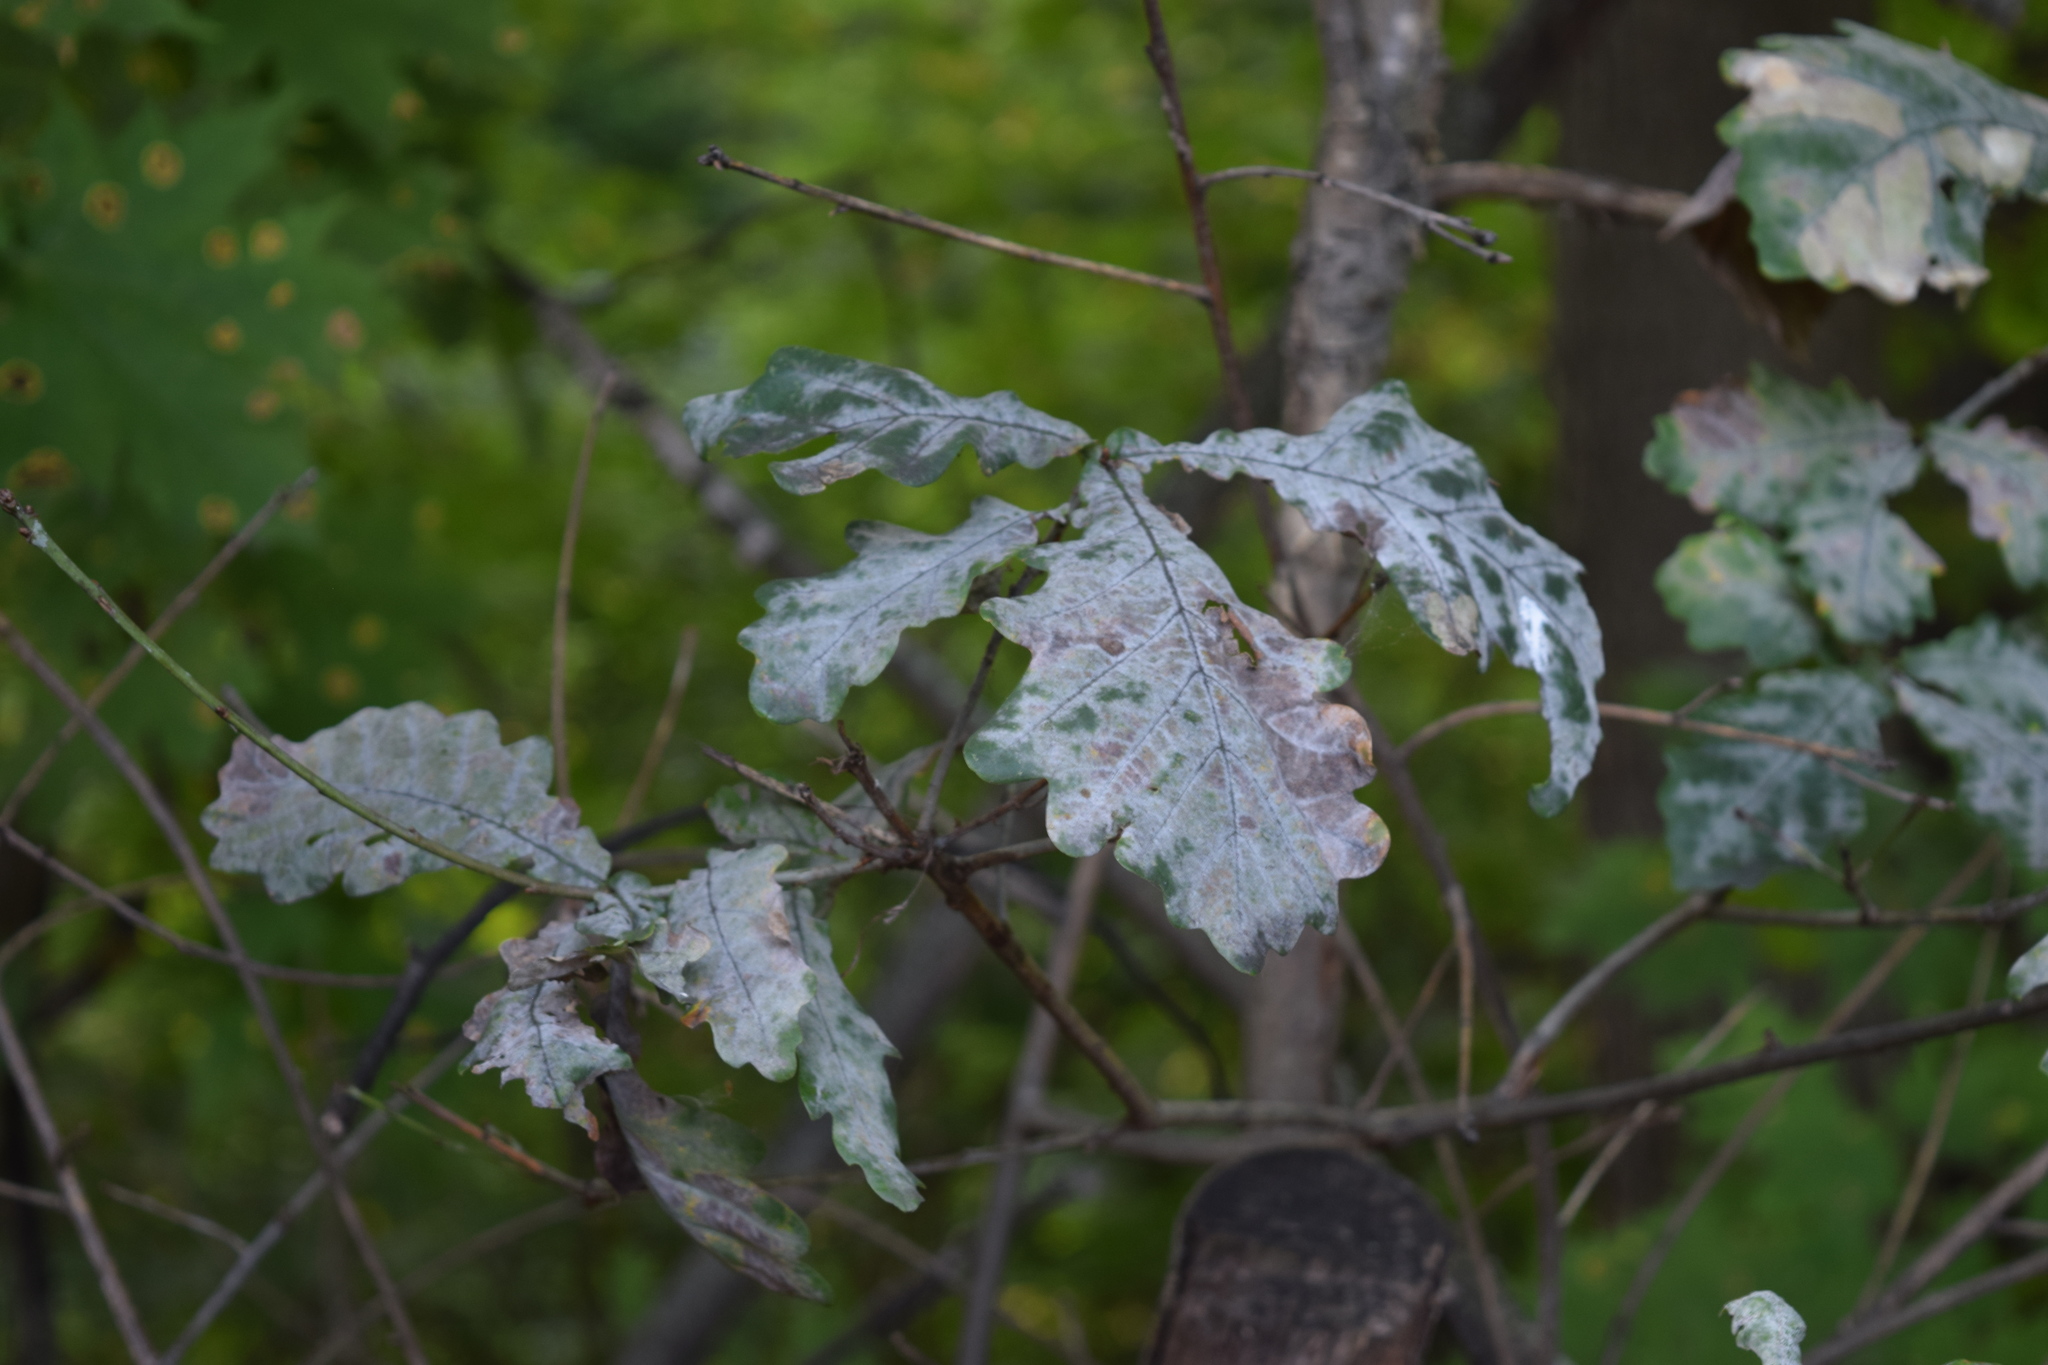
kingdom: Plantae
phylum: Tracheophyta
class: Magnoliopsida
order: Fagales
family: Fagaceae
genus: Quercus
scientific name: Quercus robur
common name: Pedunculate oak
